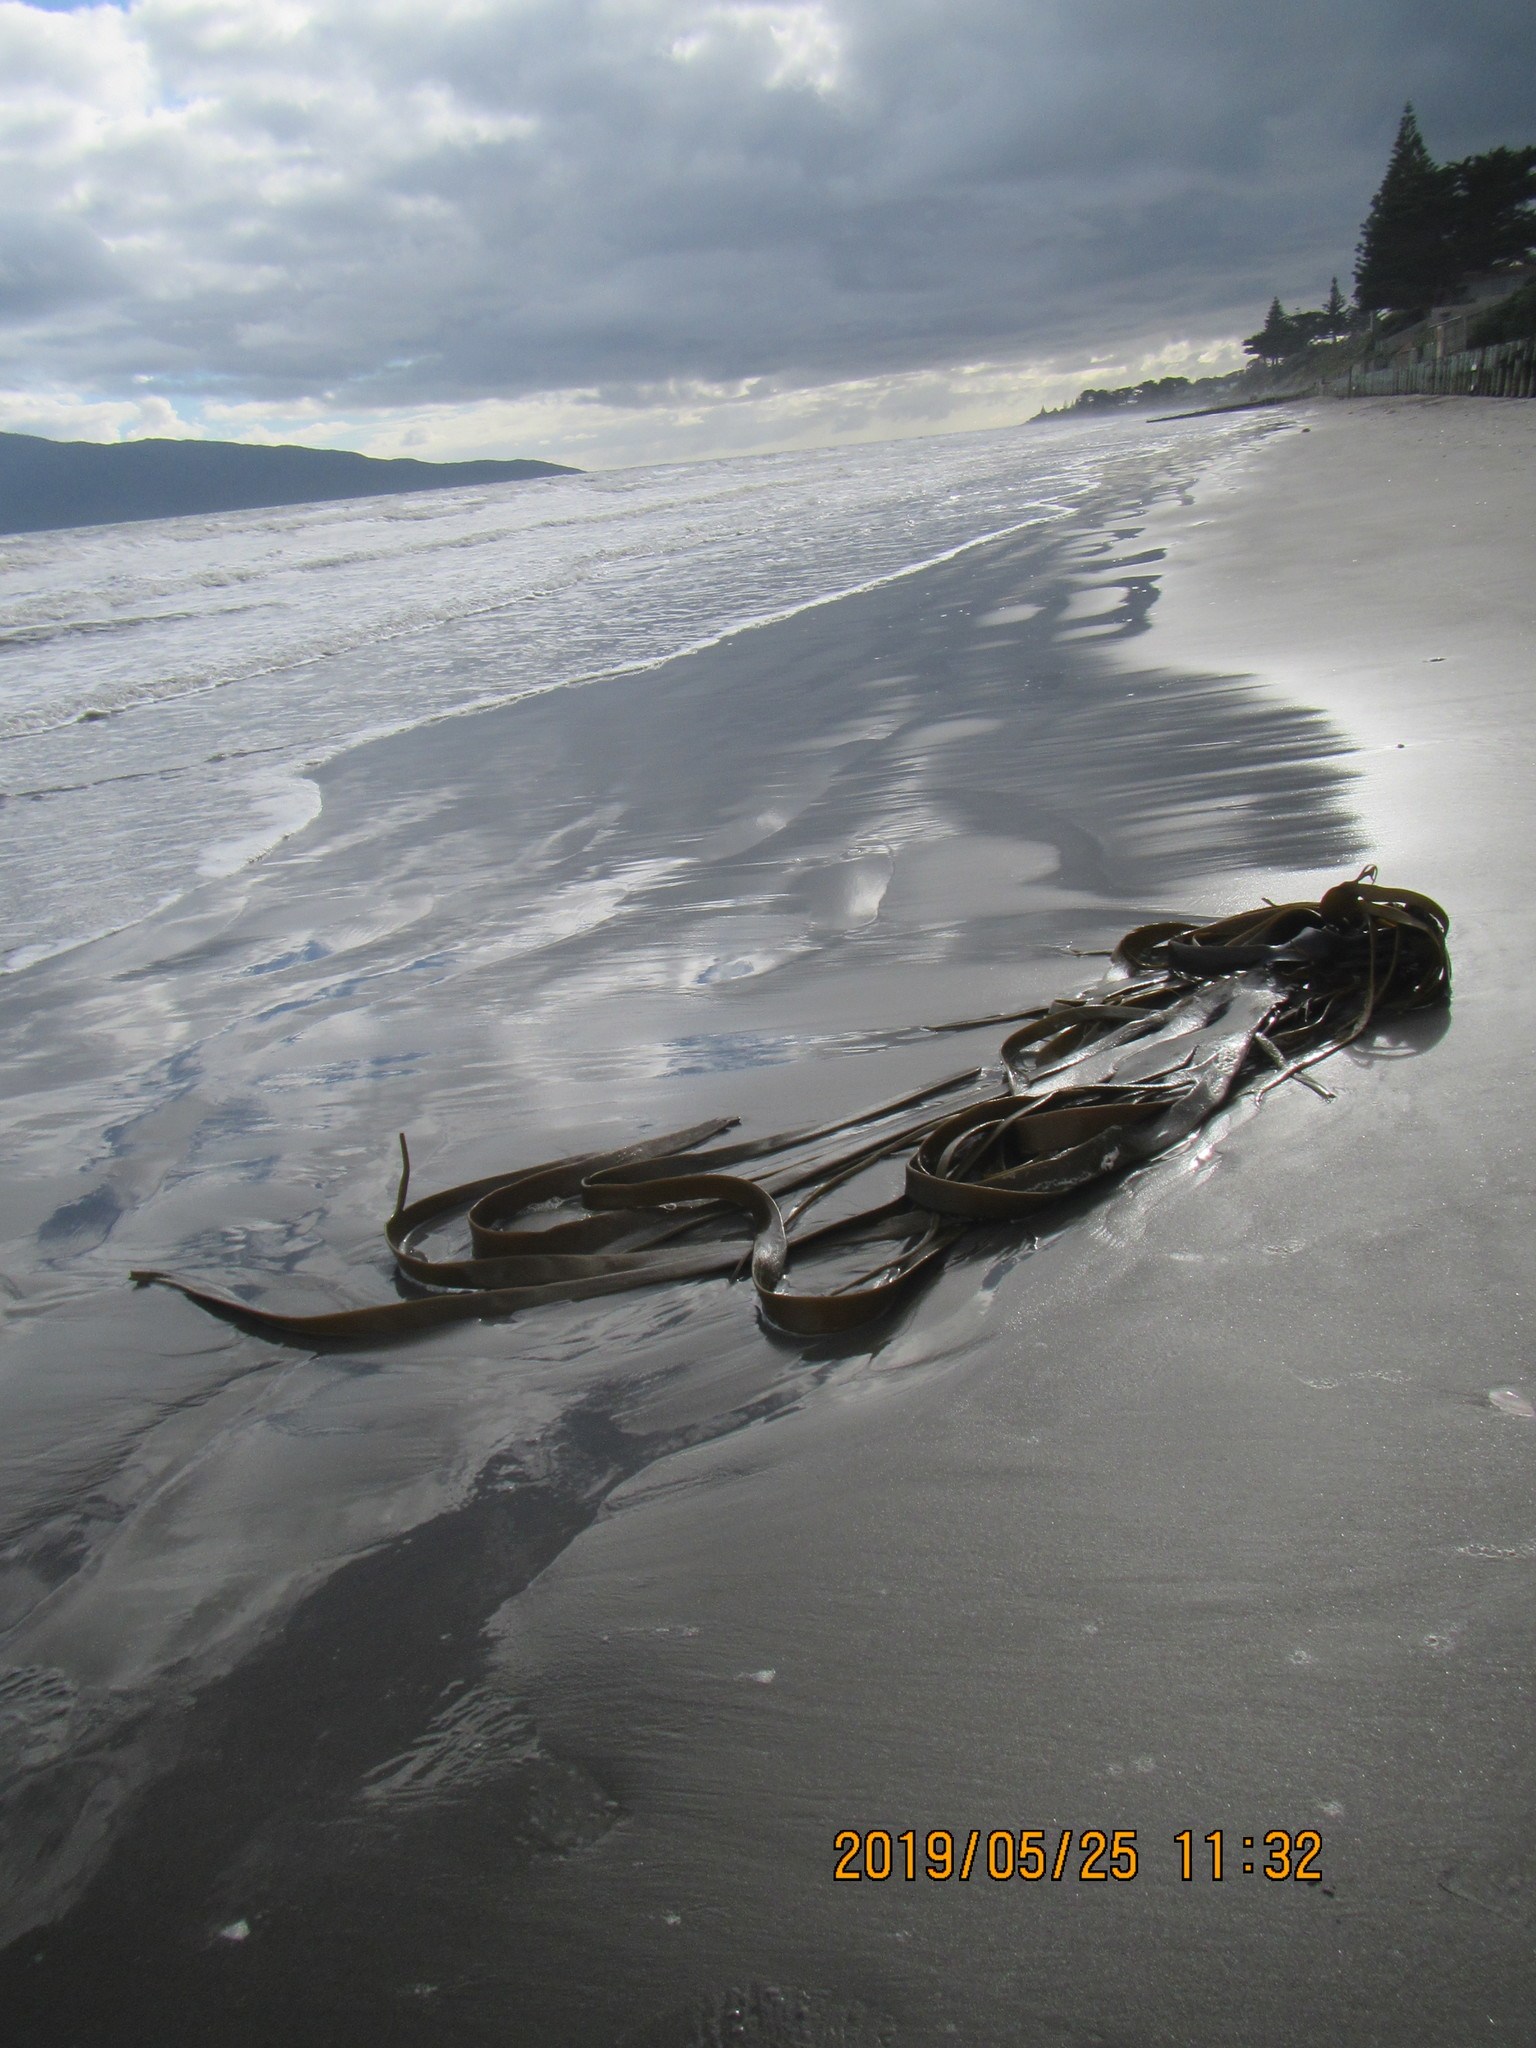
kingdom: Chromista
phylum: Ochrophyta
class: Phaeophyceae
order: Fucales
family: Durvillaeaceae
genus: Durvillaea
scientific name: Durvillaea antarctica
